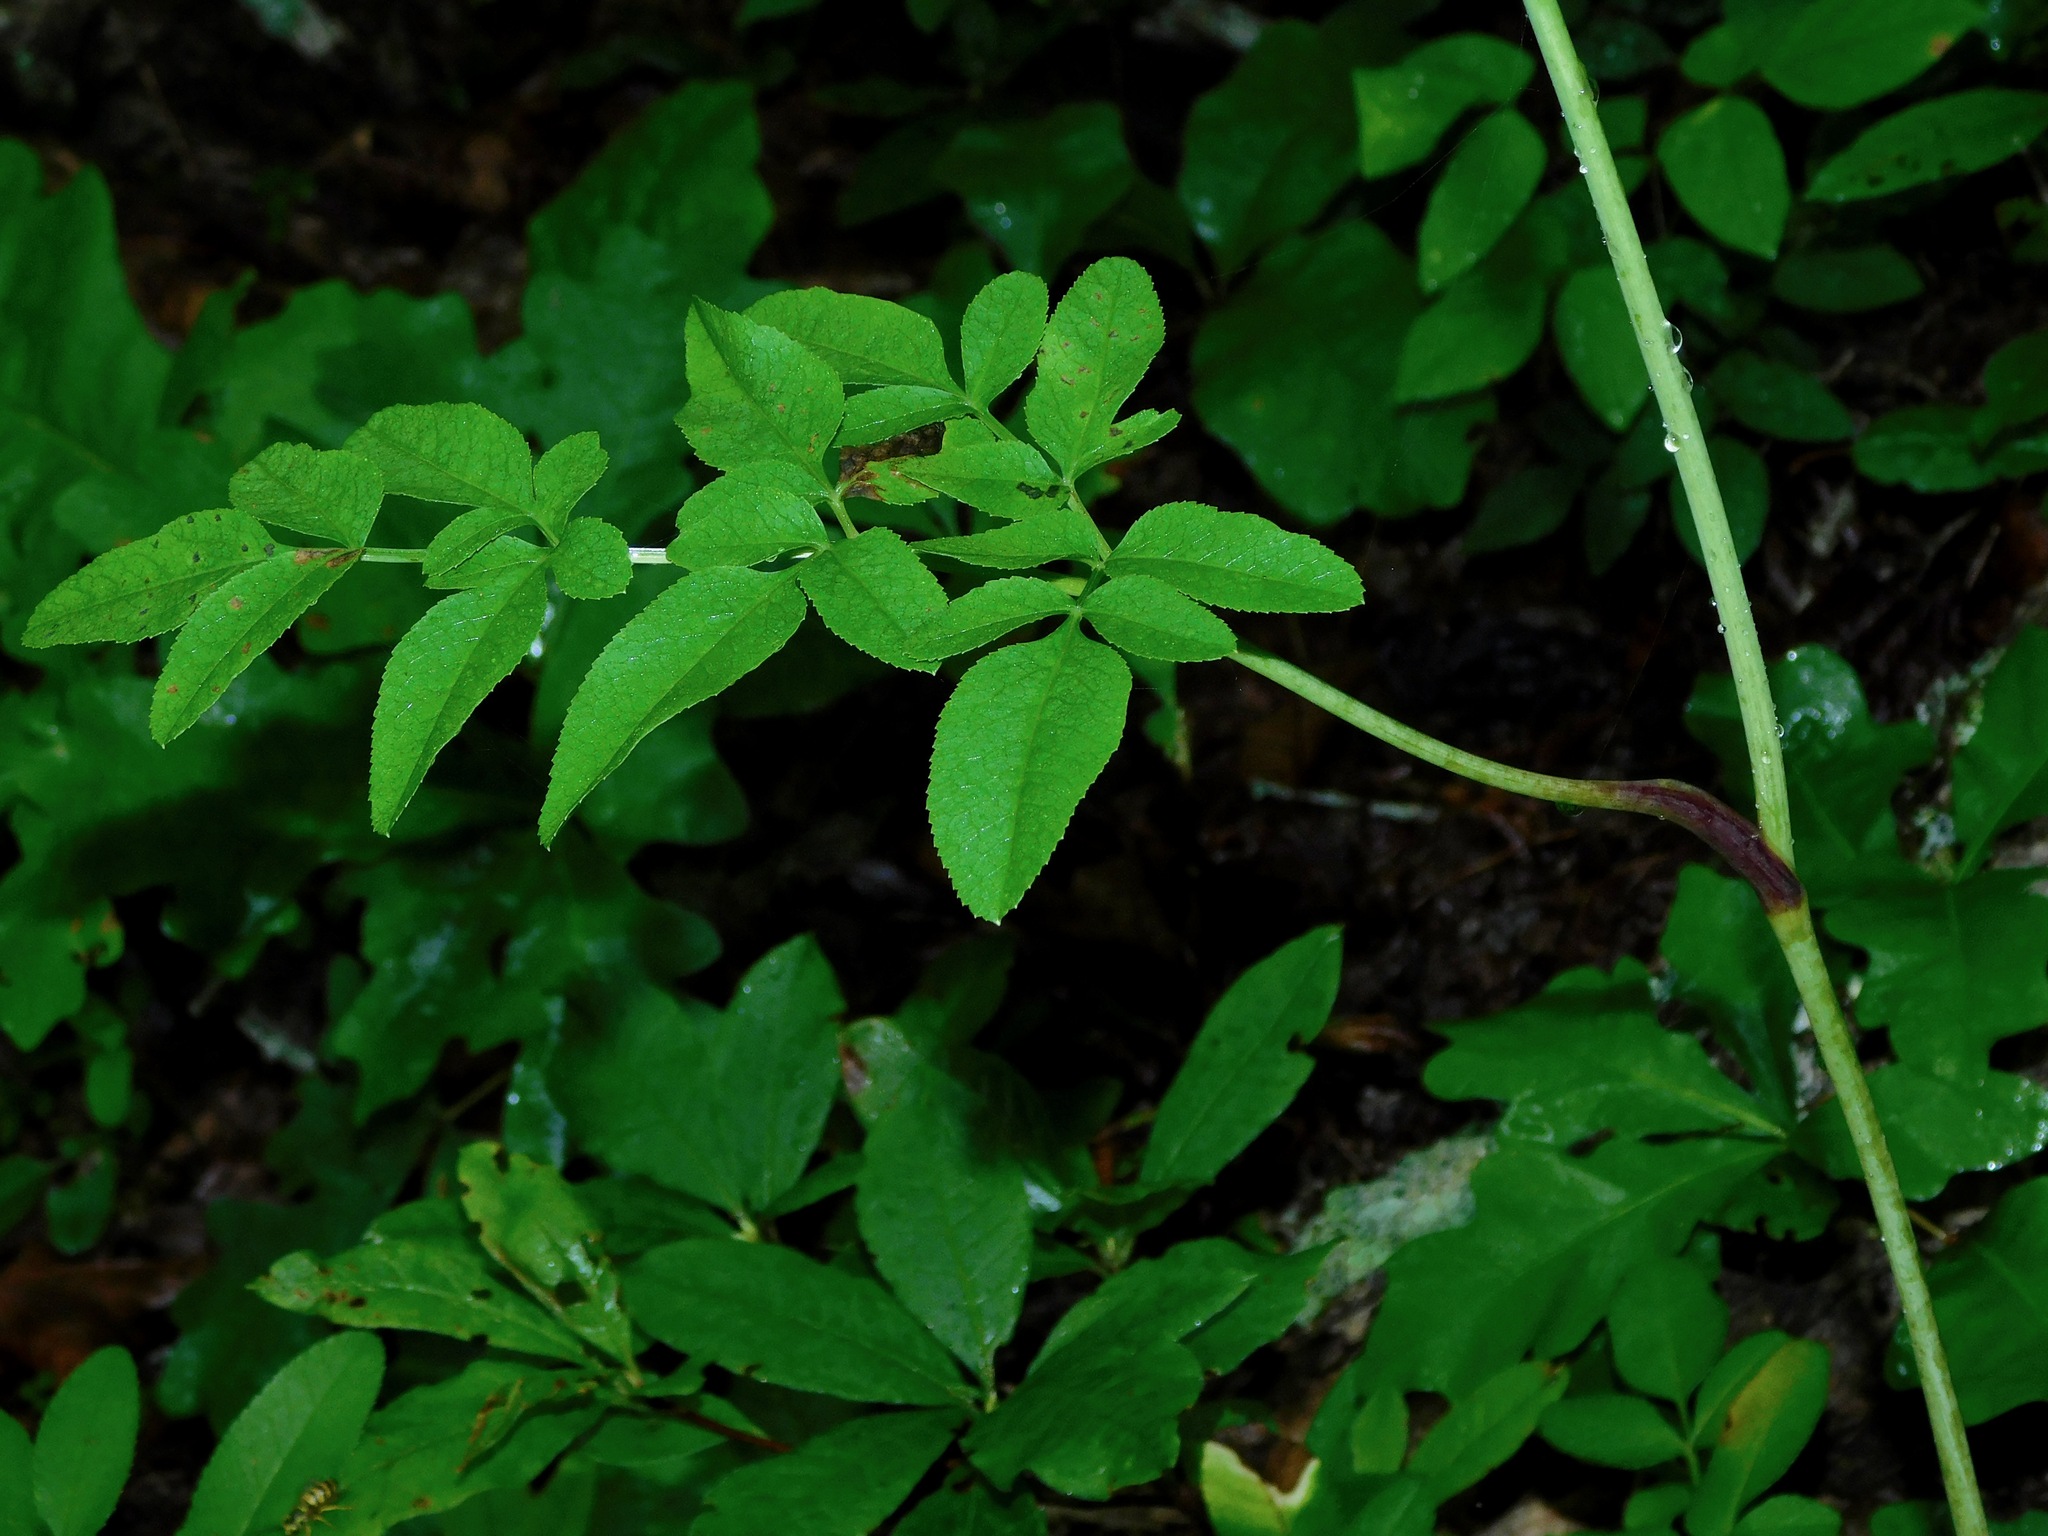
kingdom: Plantae
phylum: Tracheophyta
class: Magnoliopsida
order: Apiales
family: Apiaceae
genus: Angelica
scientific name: Angelica venenosa
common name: Hairy angelica
